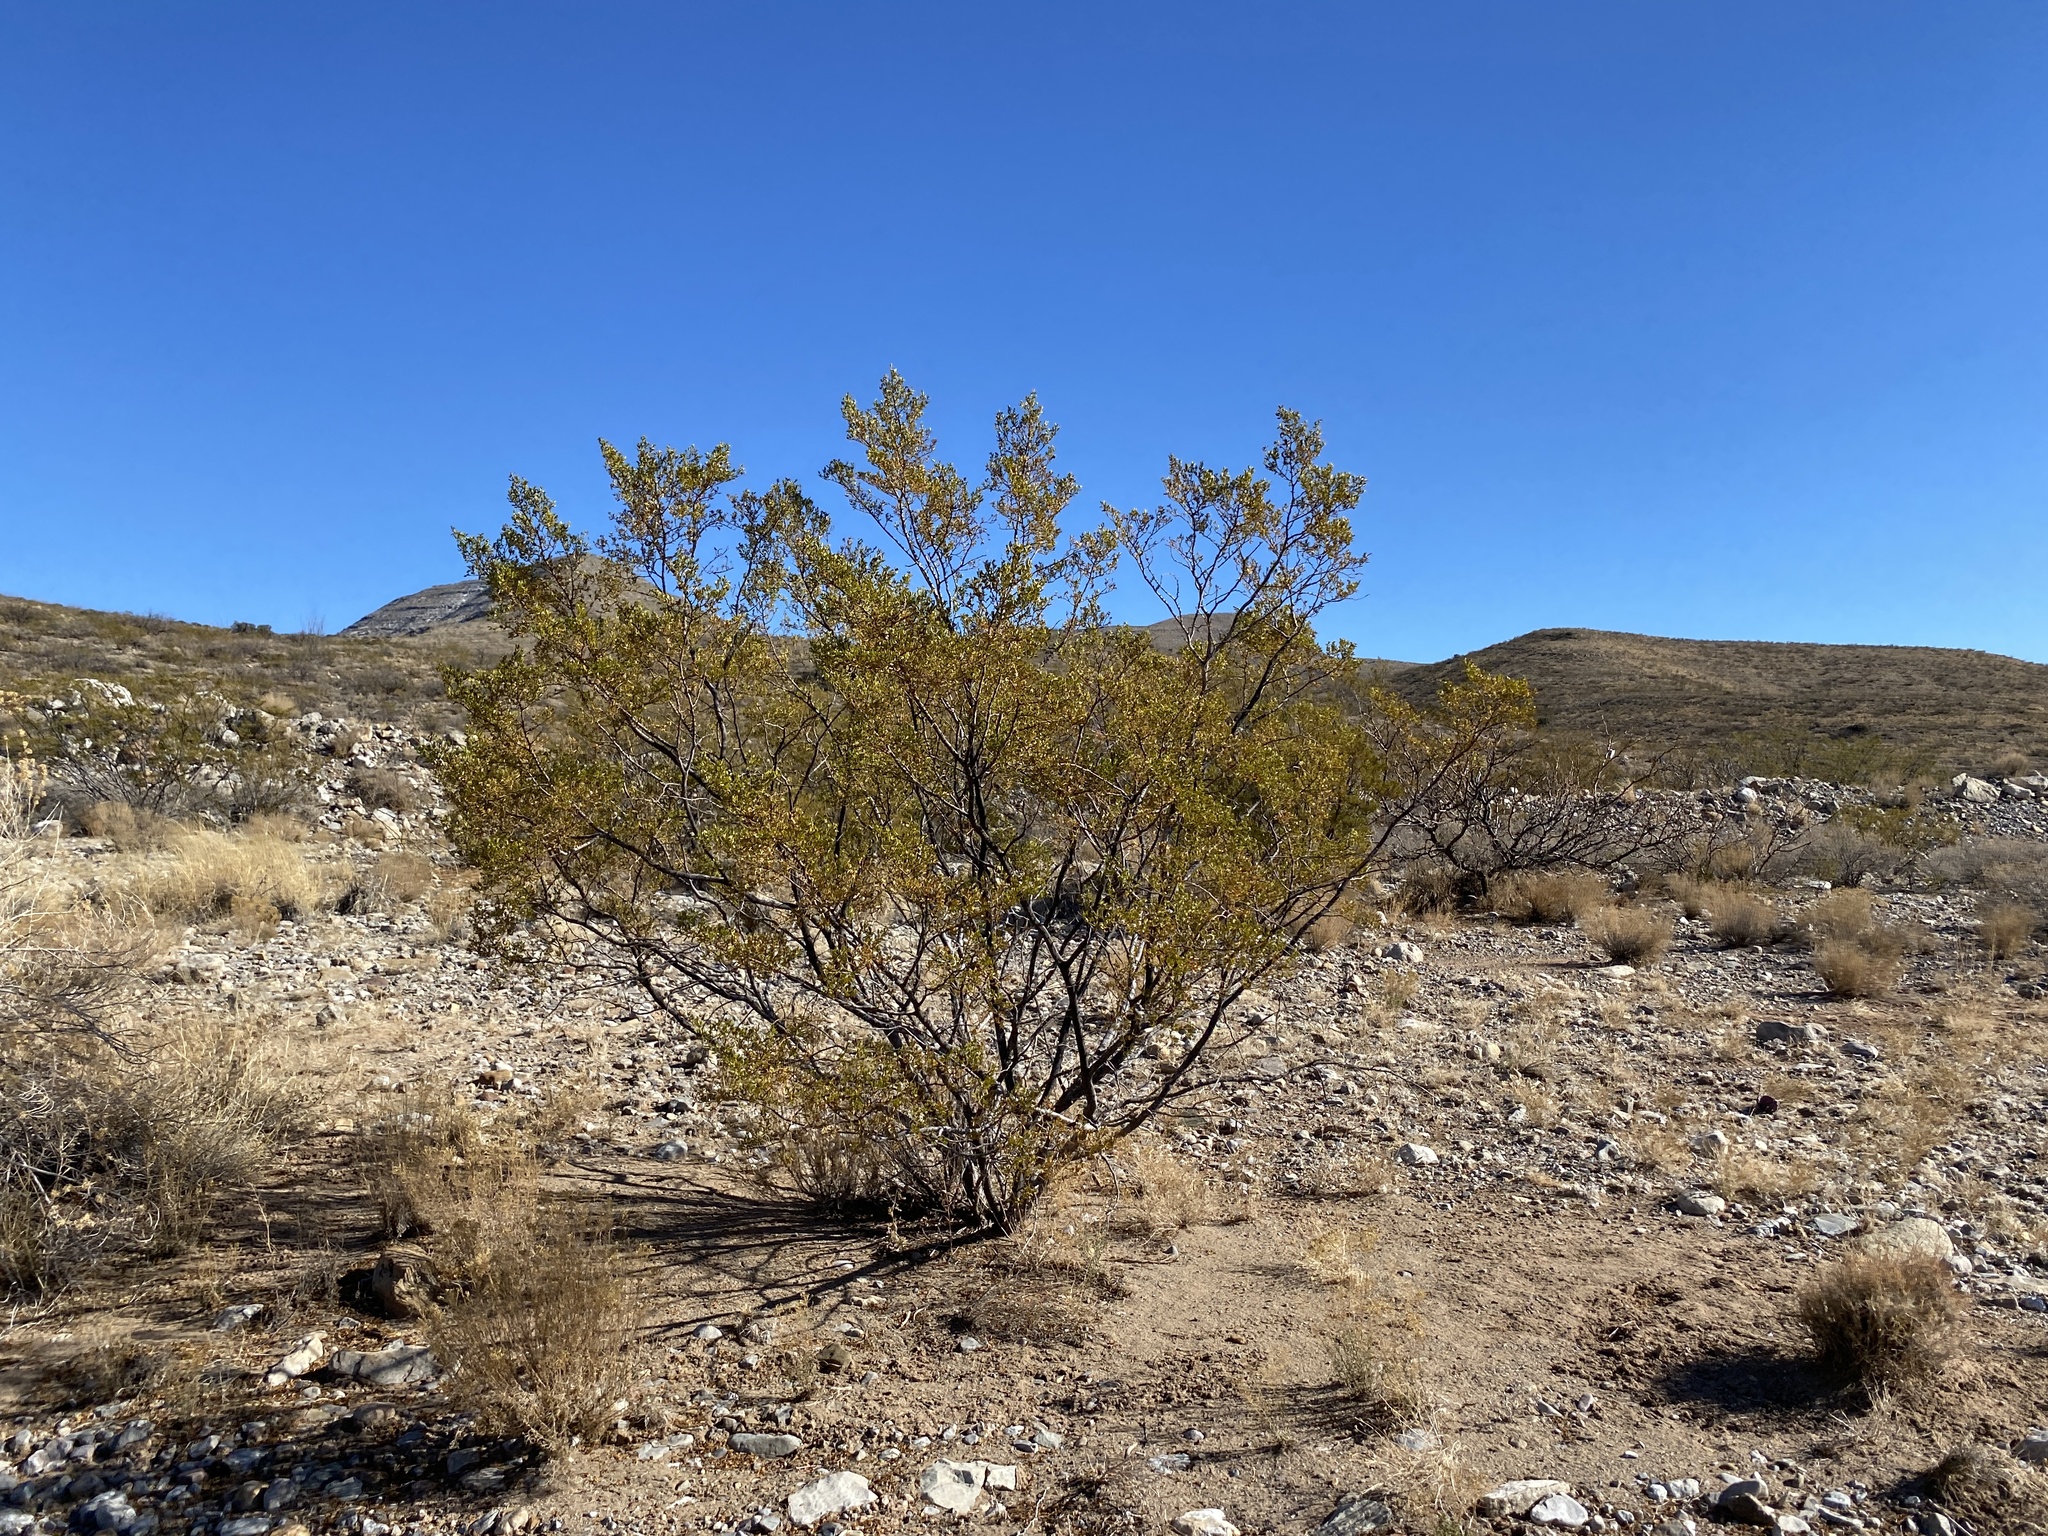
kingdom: Plantae
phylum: Tracheophyta
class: Magnoliopsida
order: Zygophyllales
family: Zygophyllaceae
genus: Larrea
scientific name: Larrea tridentata
